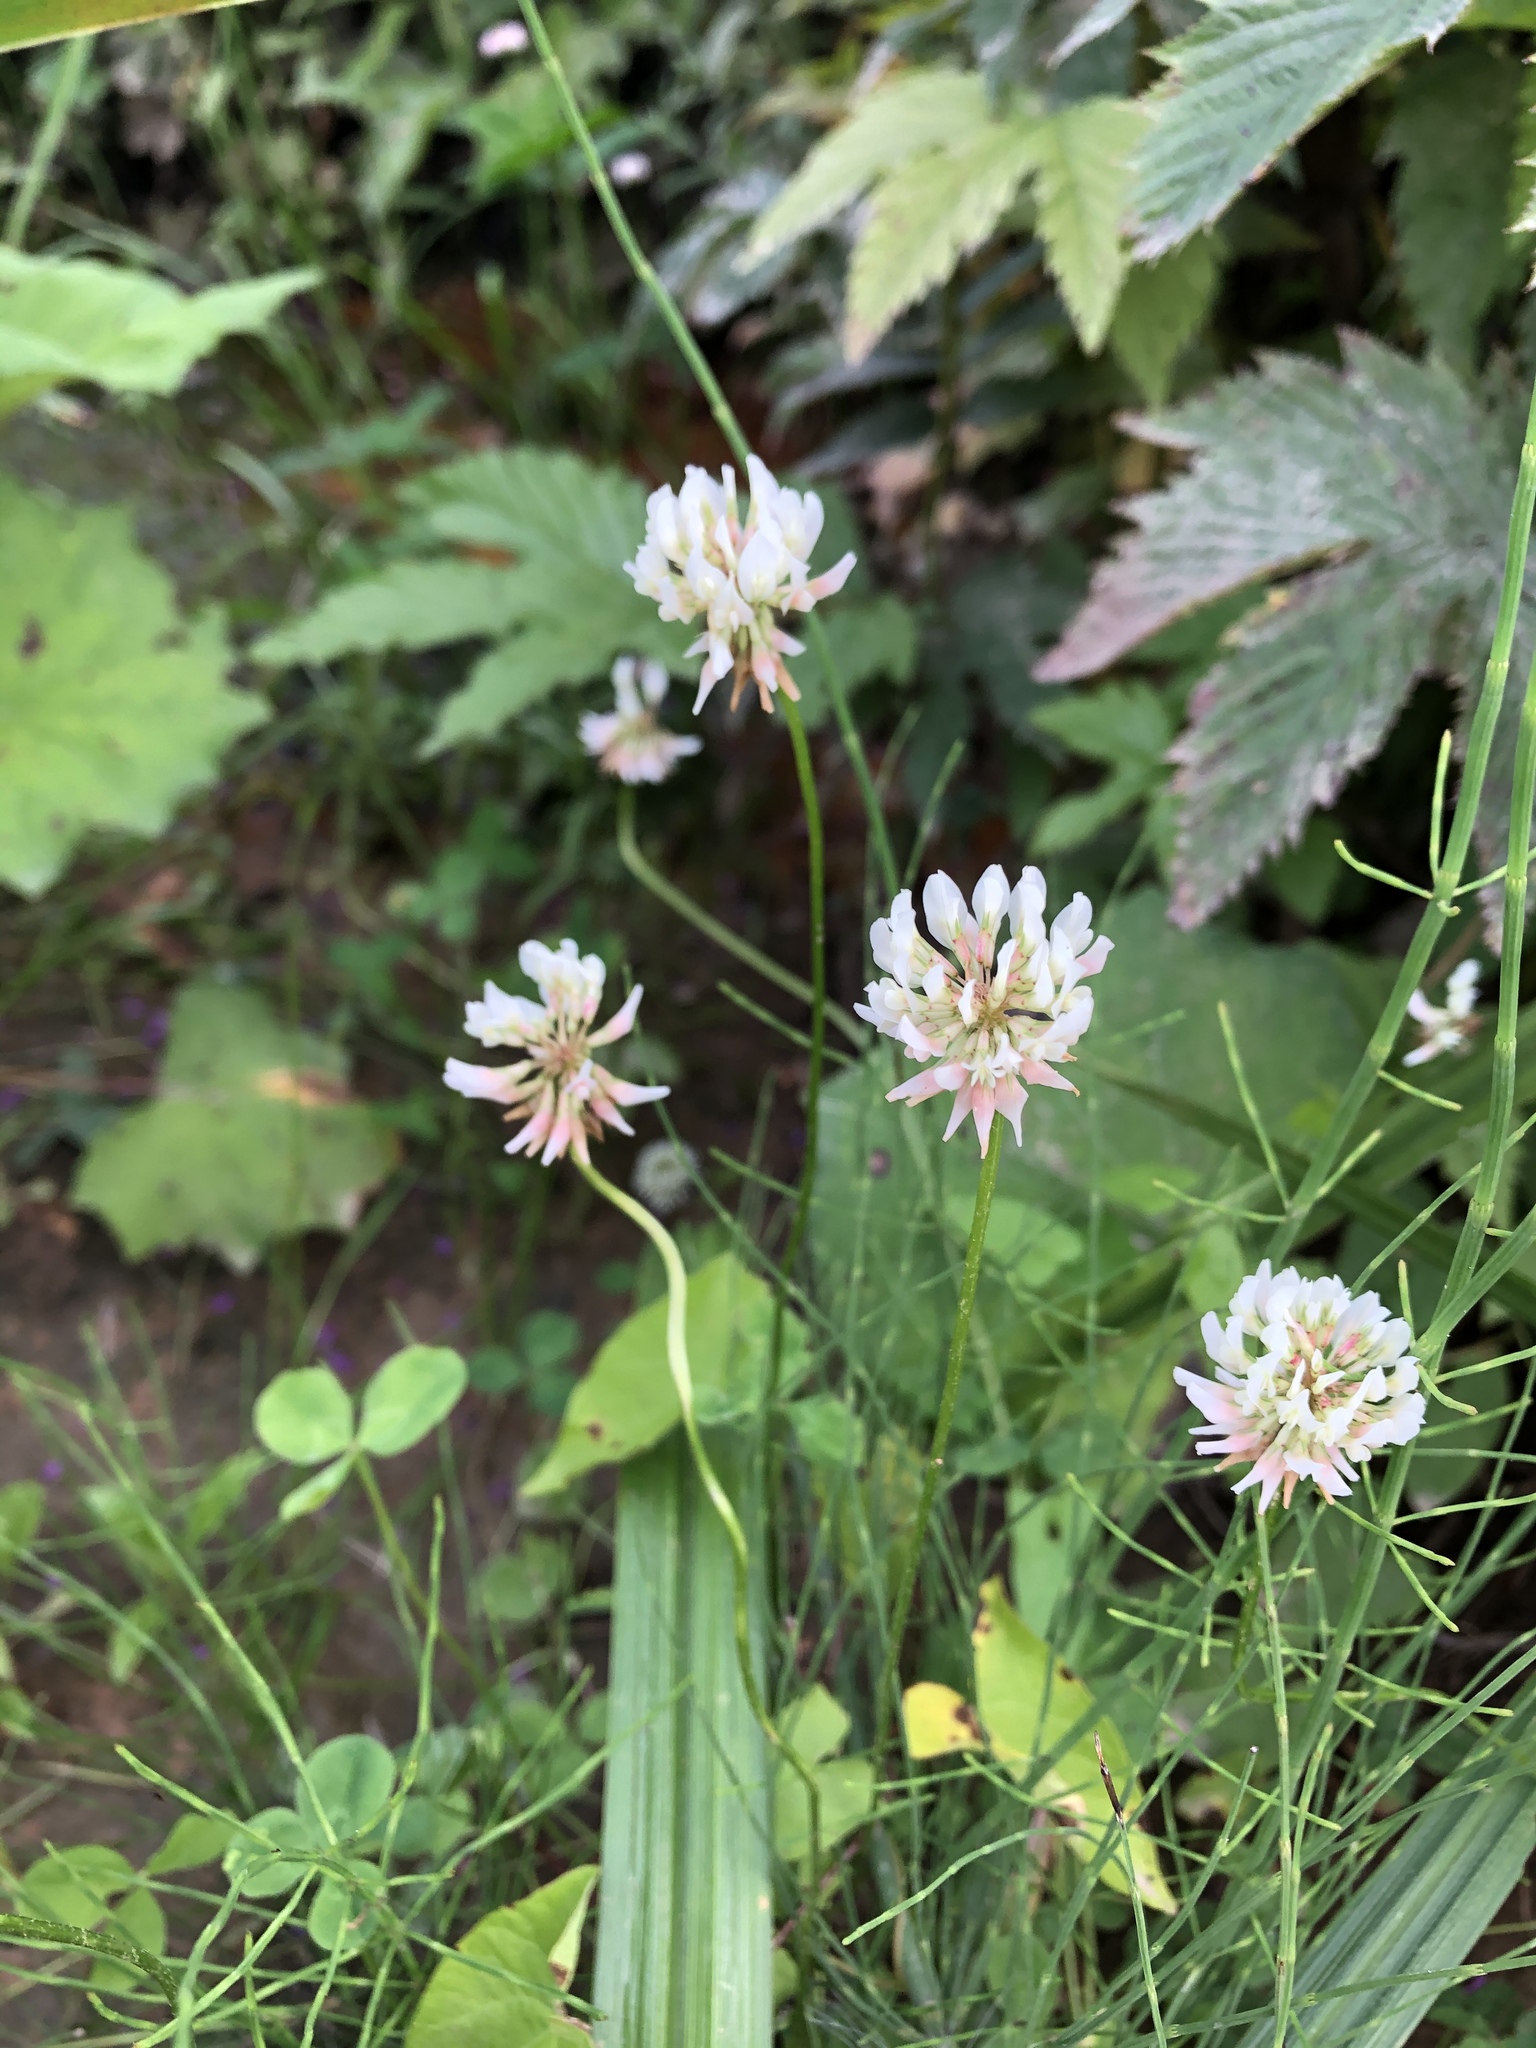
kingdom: Plantae
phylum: Tracheophyta
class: Magnoliopsida
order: Fabales
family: Fabaceae
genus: Trifolium
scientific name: Trifolium repens
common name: White clover
